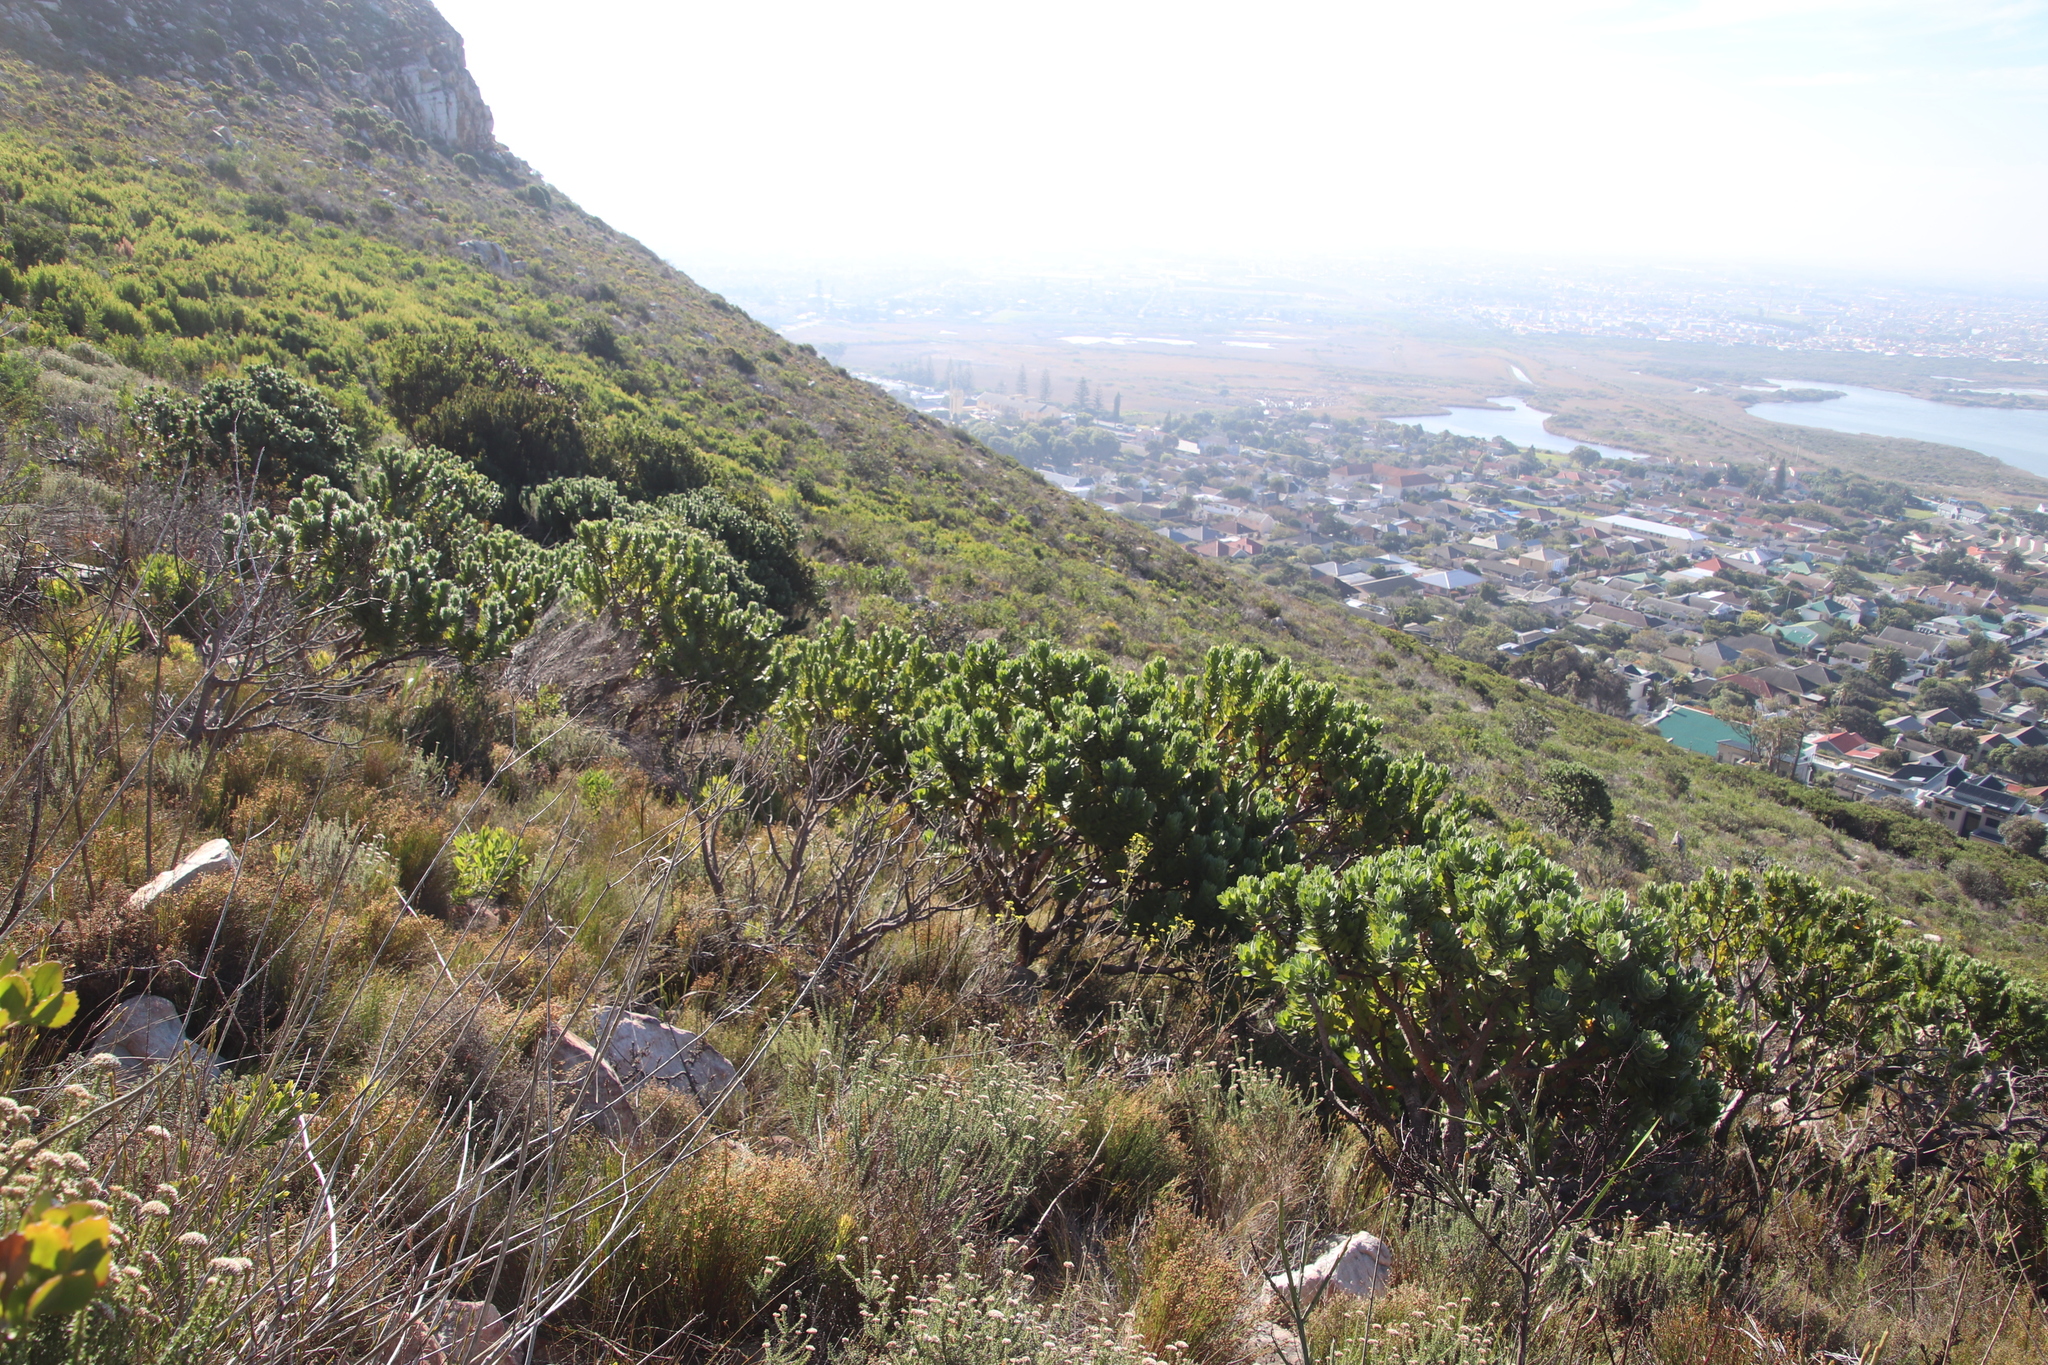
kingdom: Plantae
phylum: Tracheophyta
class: Magnoliopsida
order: Proteales
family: Proteaceae
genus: Leucospermum
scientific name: Leucospermum conocarpodendron
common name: Tree pincushion
